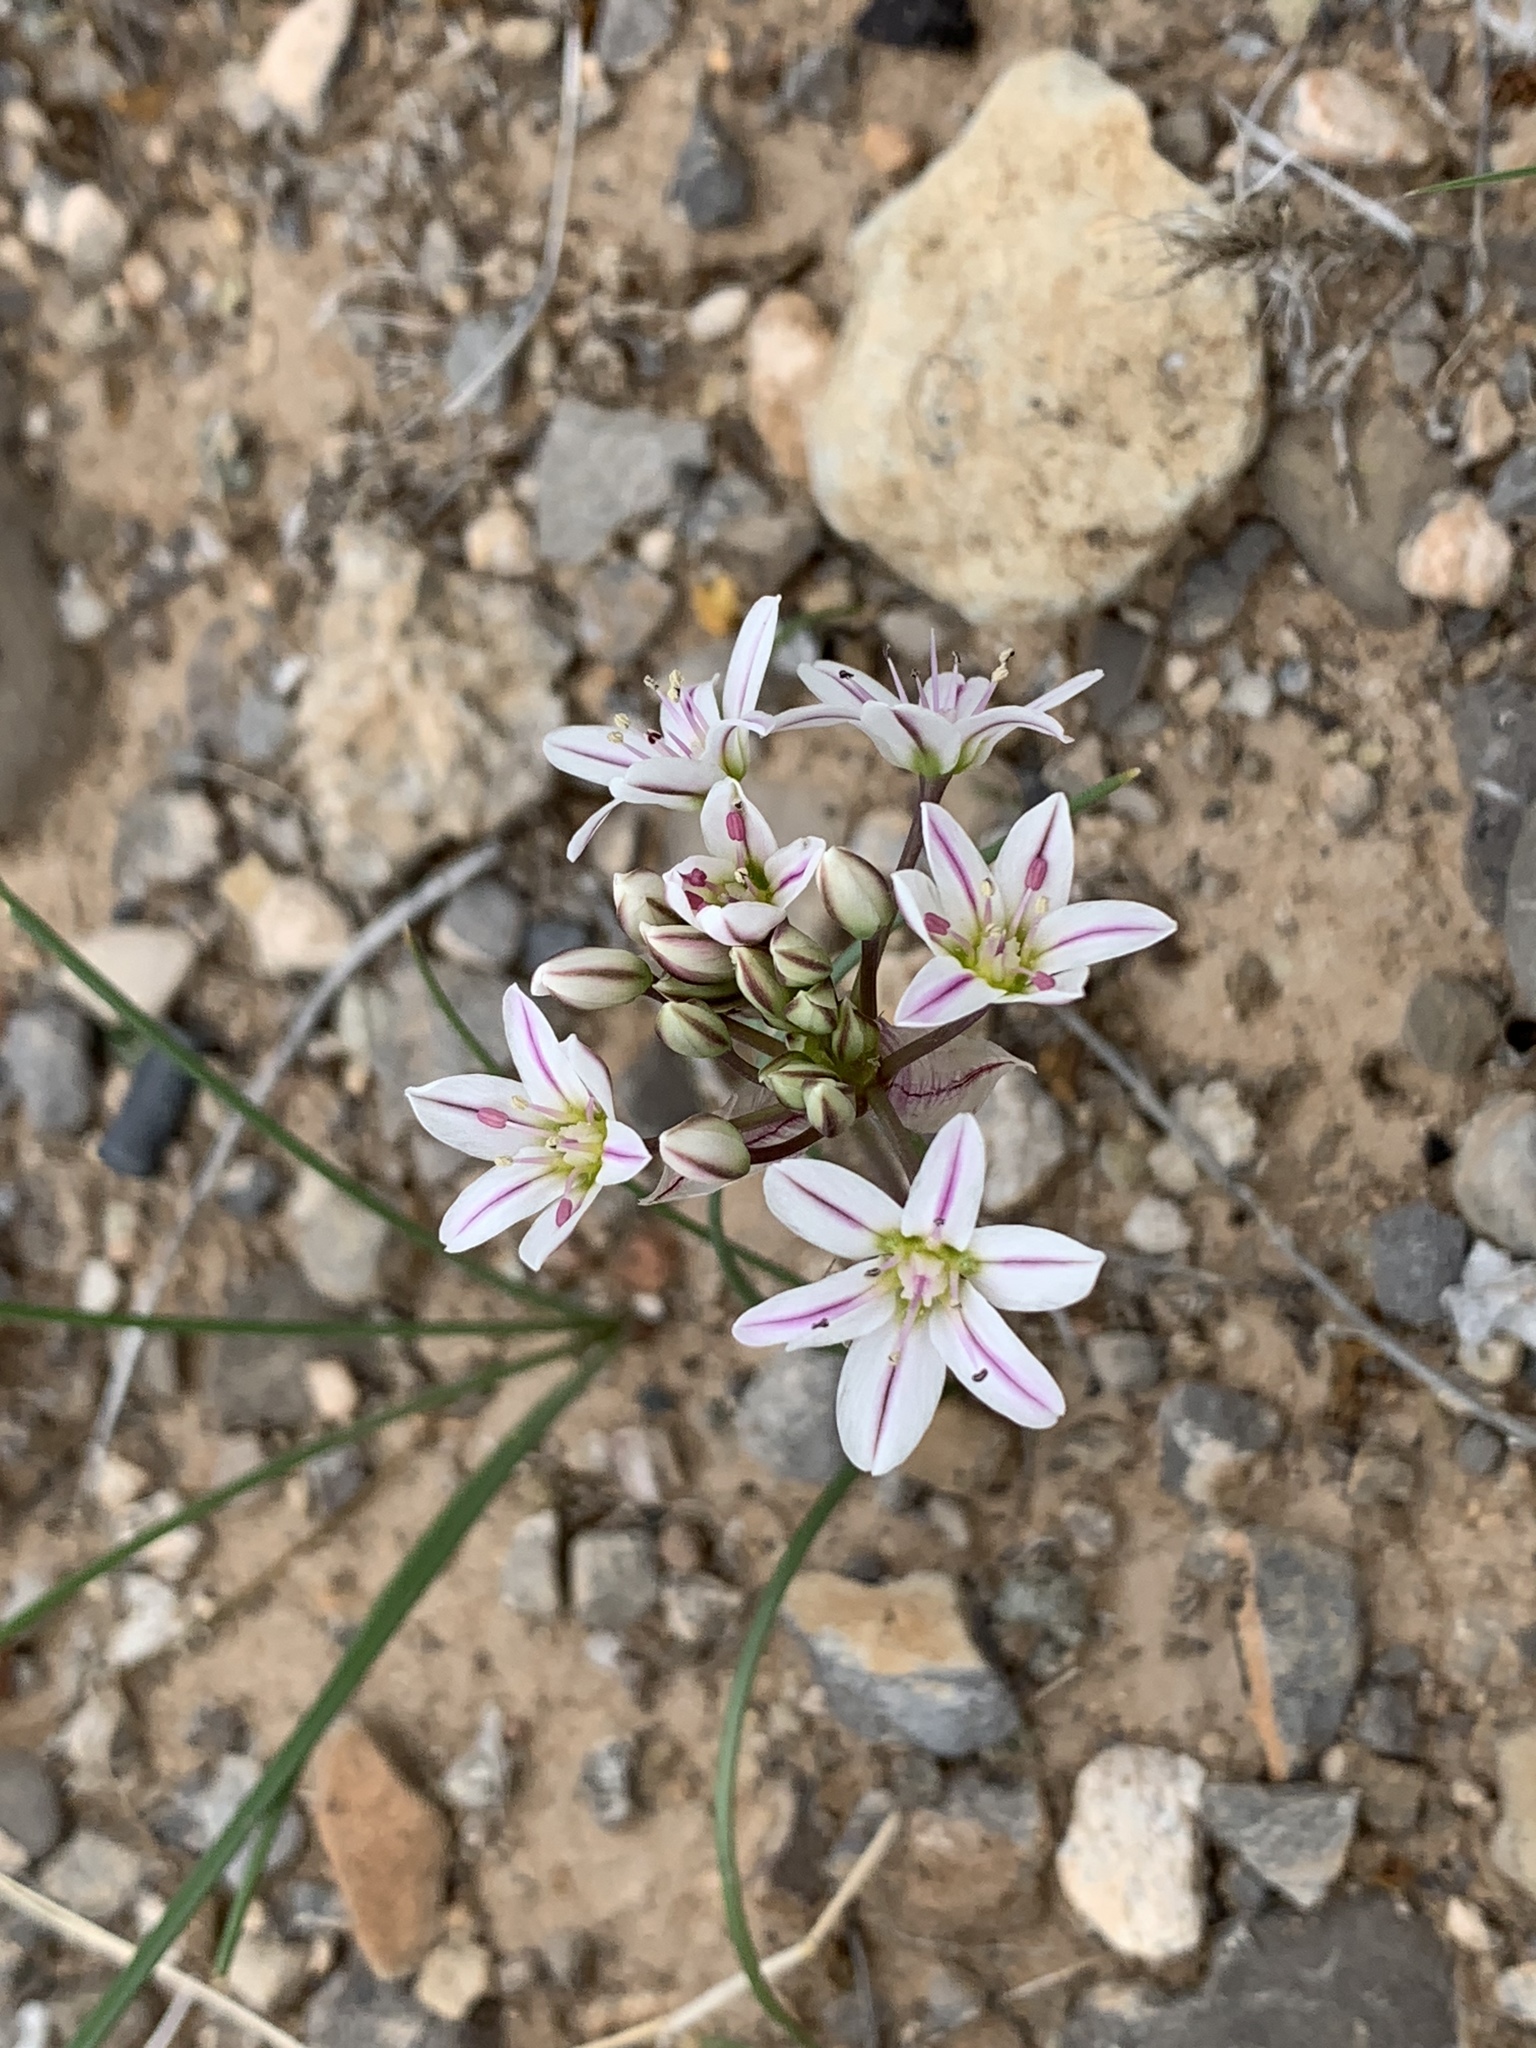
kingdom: Plantae
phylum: Tracheophyta
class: Liliopsida
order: Asparagales
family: Amaryllidaceae
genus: Allium
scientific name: Allium macropetalum
